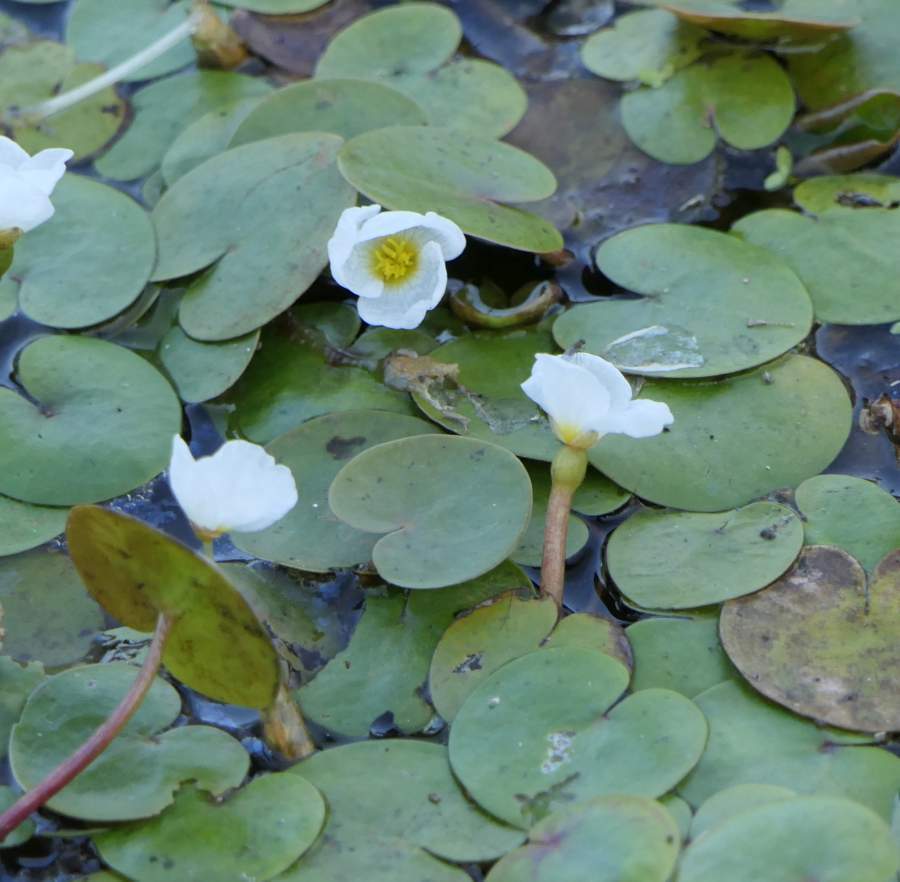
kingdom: Plantae
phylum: Tracheophyta
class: Liliopsida
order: Alismatales
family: Hydrocharitaceae
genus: Hydrocharis
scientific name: Hydrocharis morsus-ranae
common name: Frogbit
